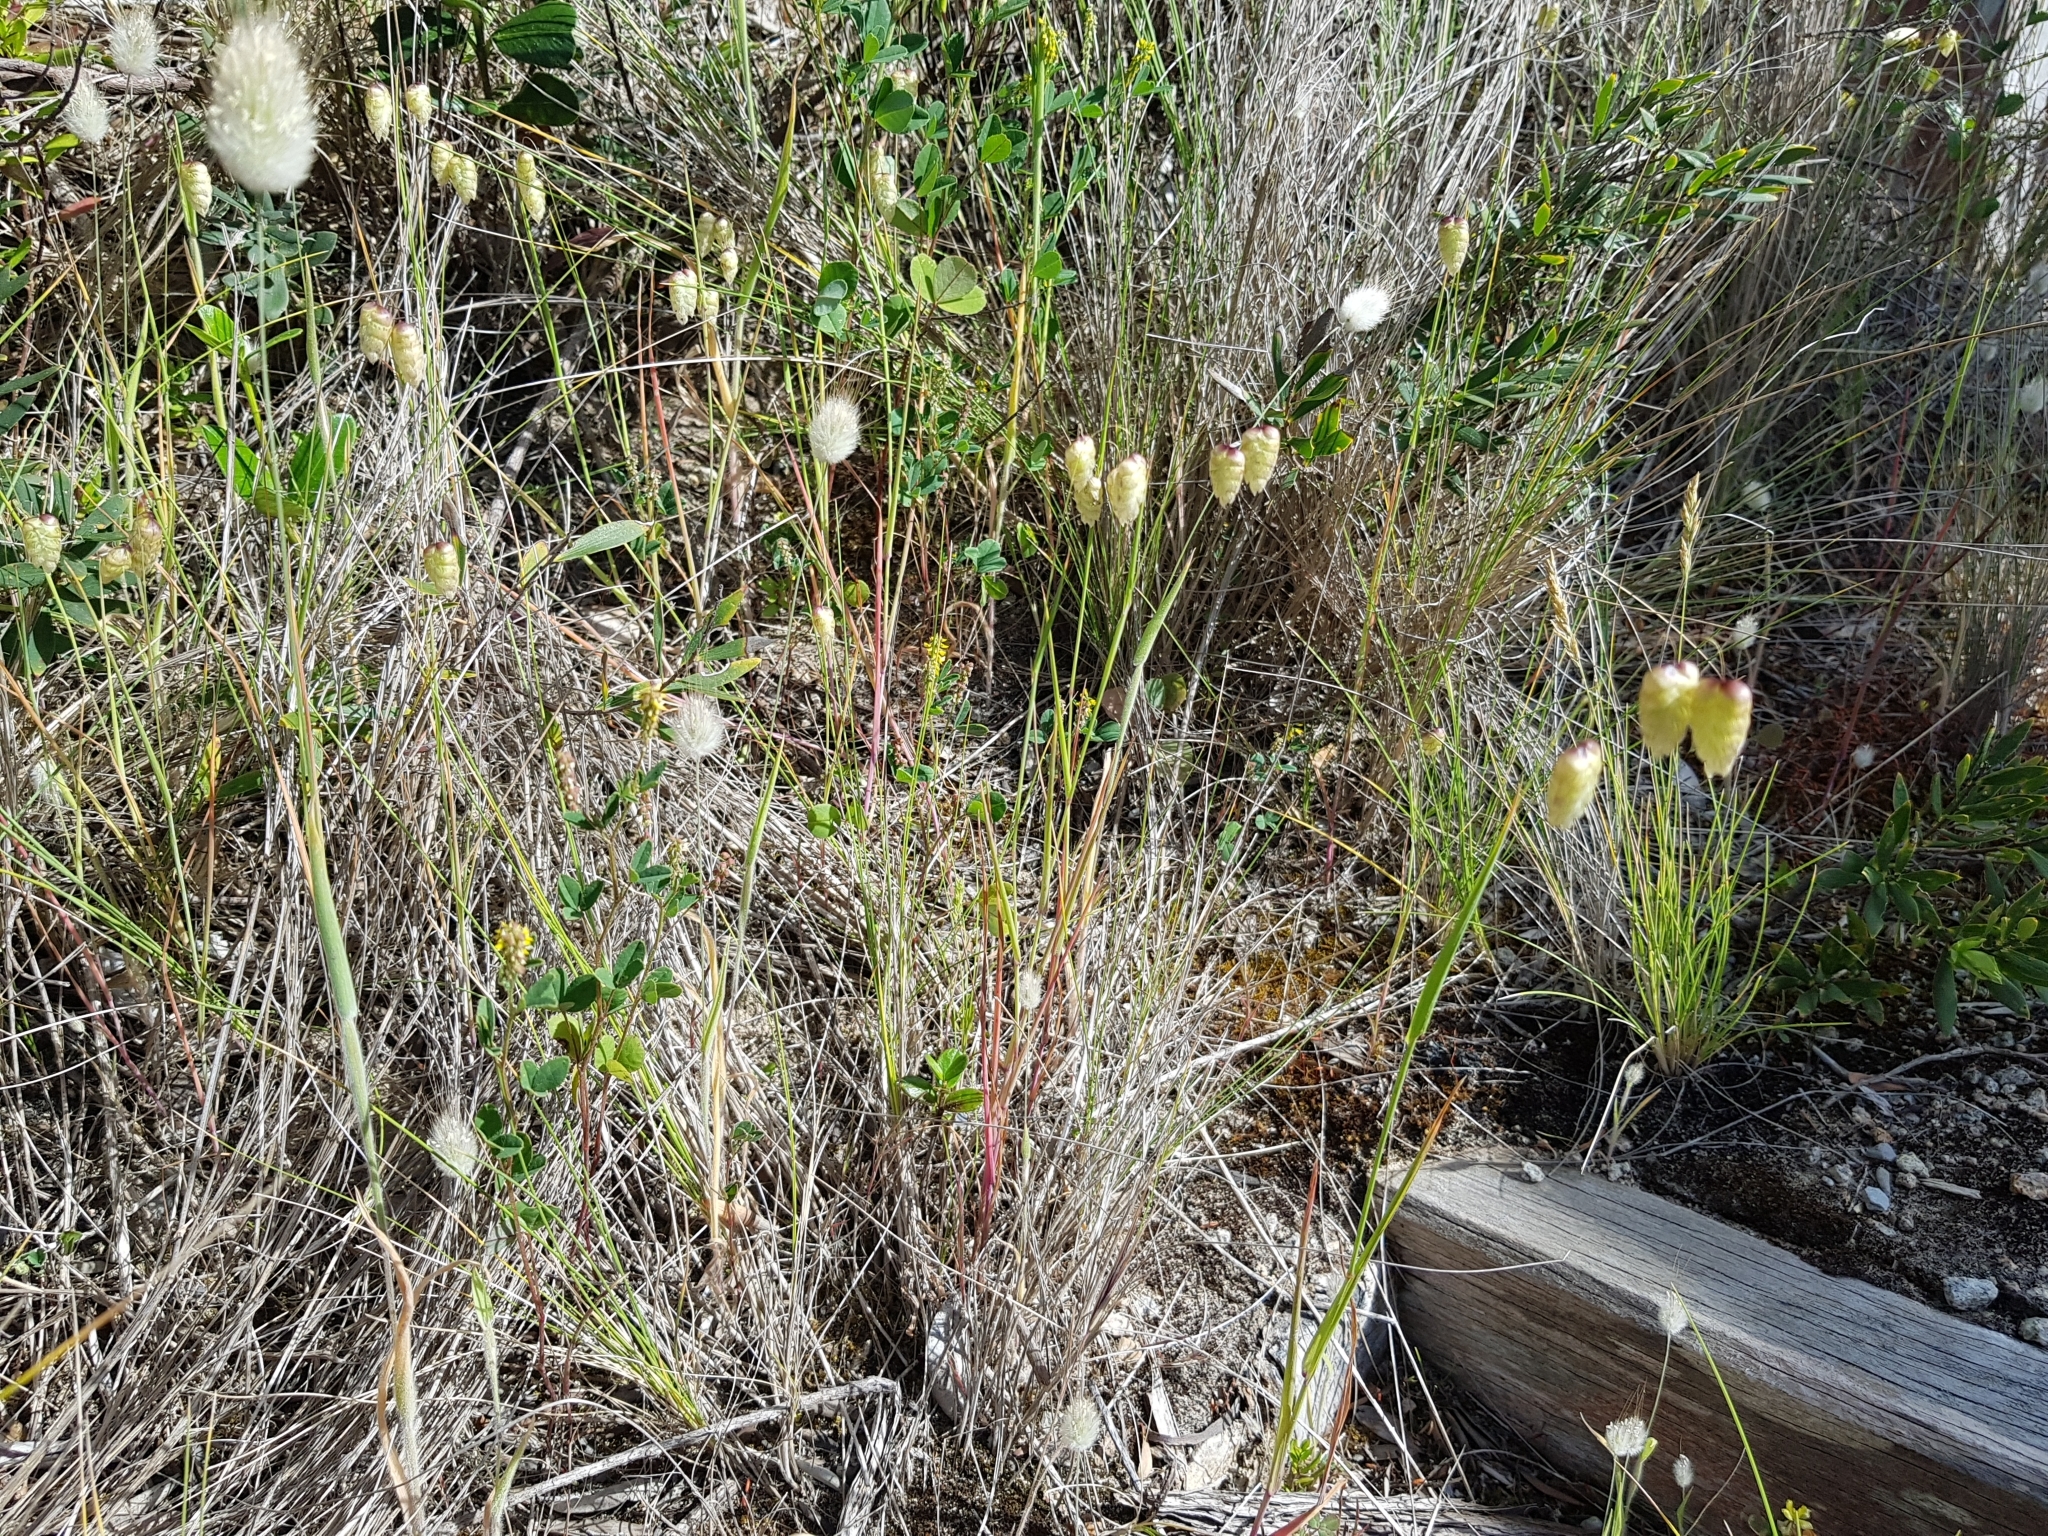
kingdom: Plantae
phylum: Tracheophyta
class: Liliopsida
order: Poales
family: Poaceae
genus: Briza
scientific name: Briza maxima
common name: Big quakinggrass
